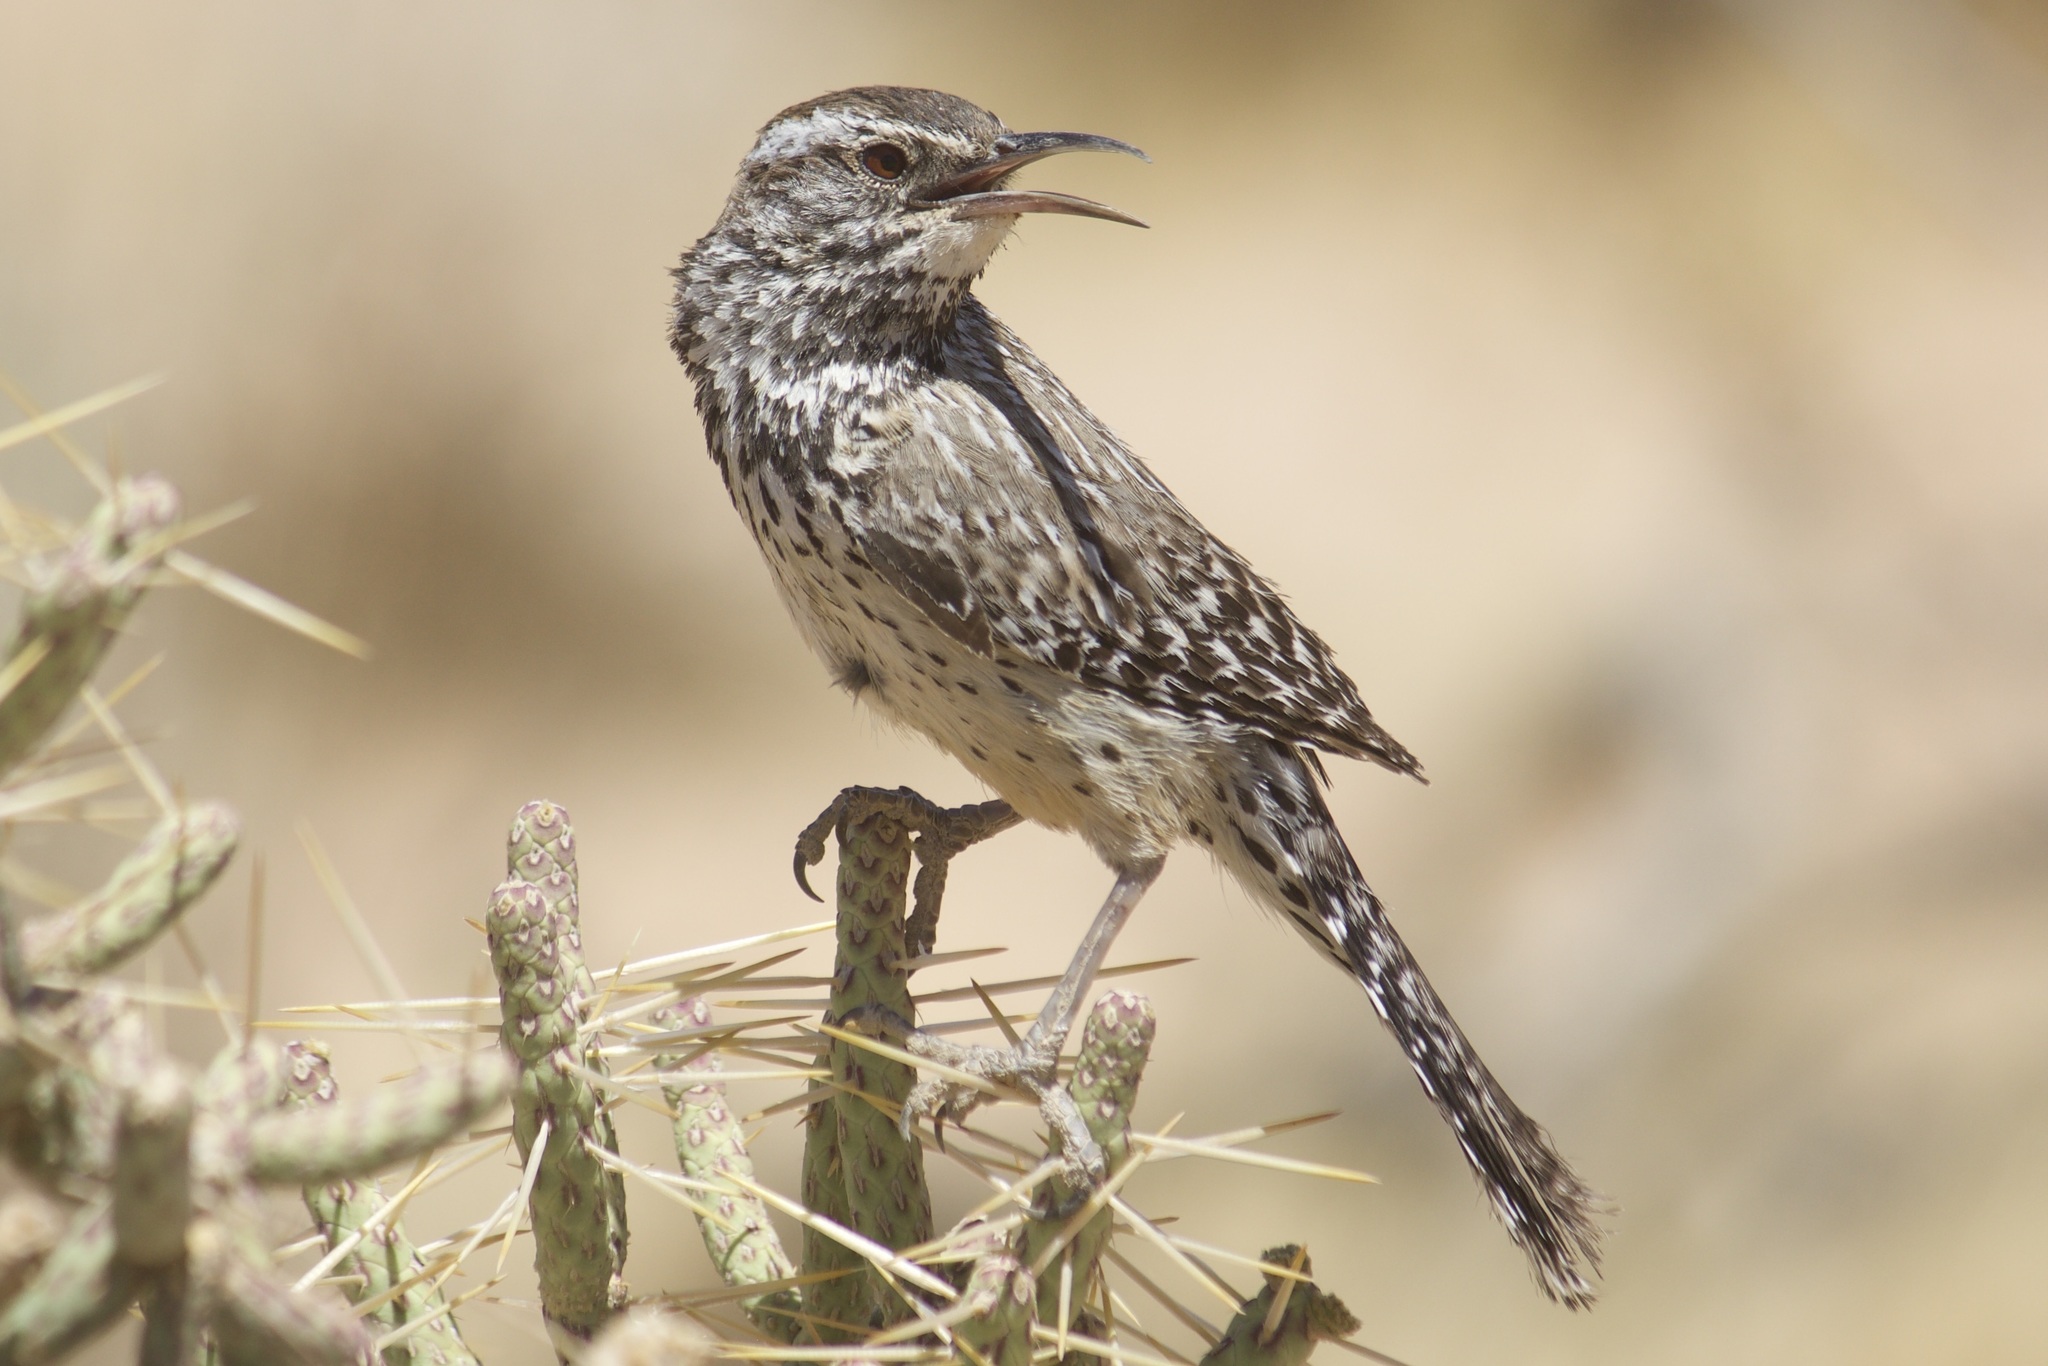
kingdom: Animalia
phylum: Chordata
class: Aves
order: Passeriformes
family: Troglodytidae
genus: Campylorhynchus
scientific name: Campylorhynchus brunneicapillus
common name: Cactus wren
